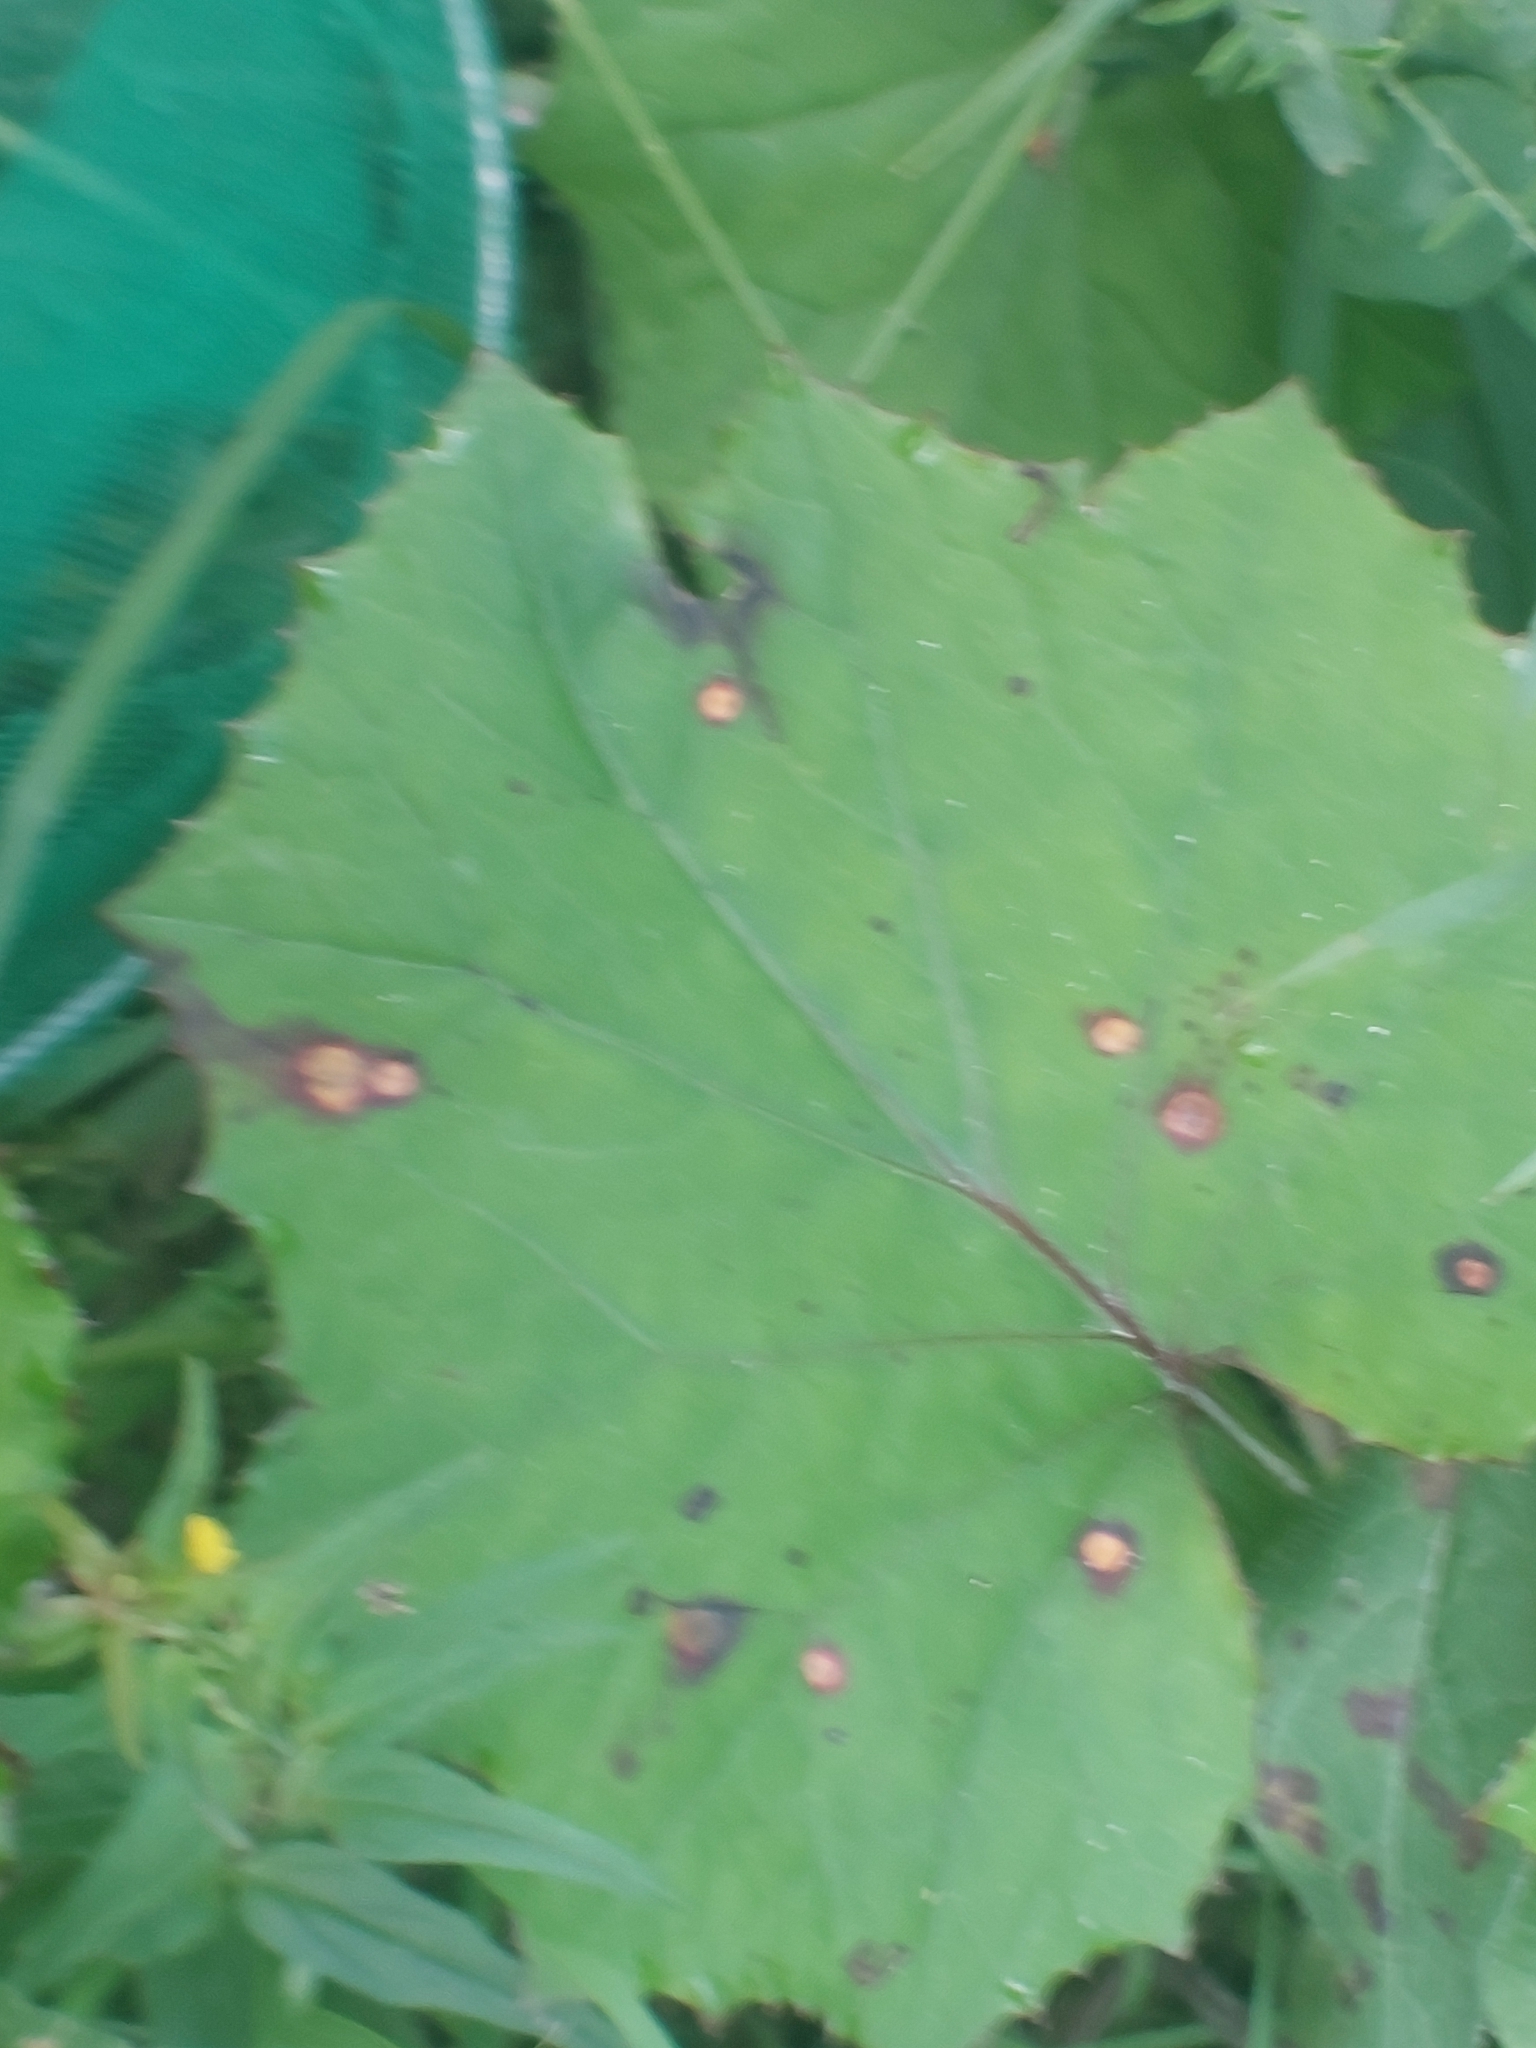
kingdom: Plantae
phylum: Tracheophyta
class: Magnoliopsida
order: Asterales
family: Asteraceae
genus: Tussilago
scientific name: Tussilago farfara
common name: Coltsfoot
